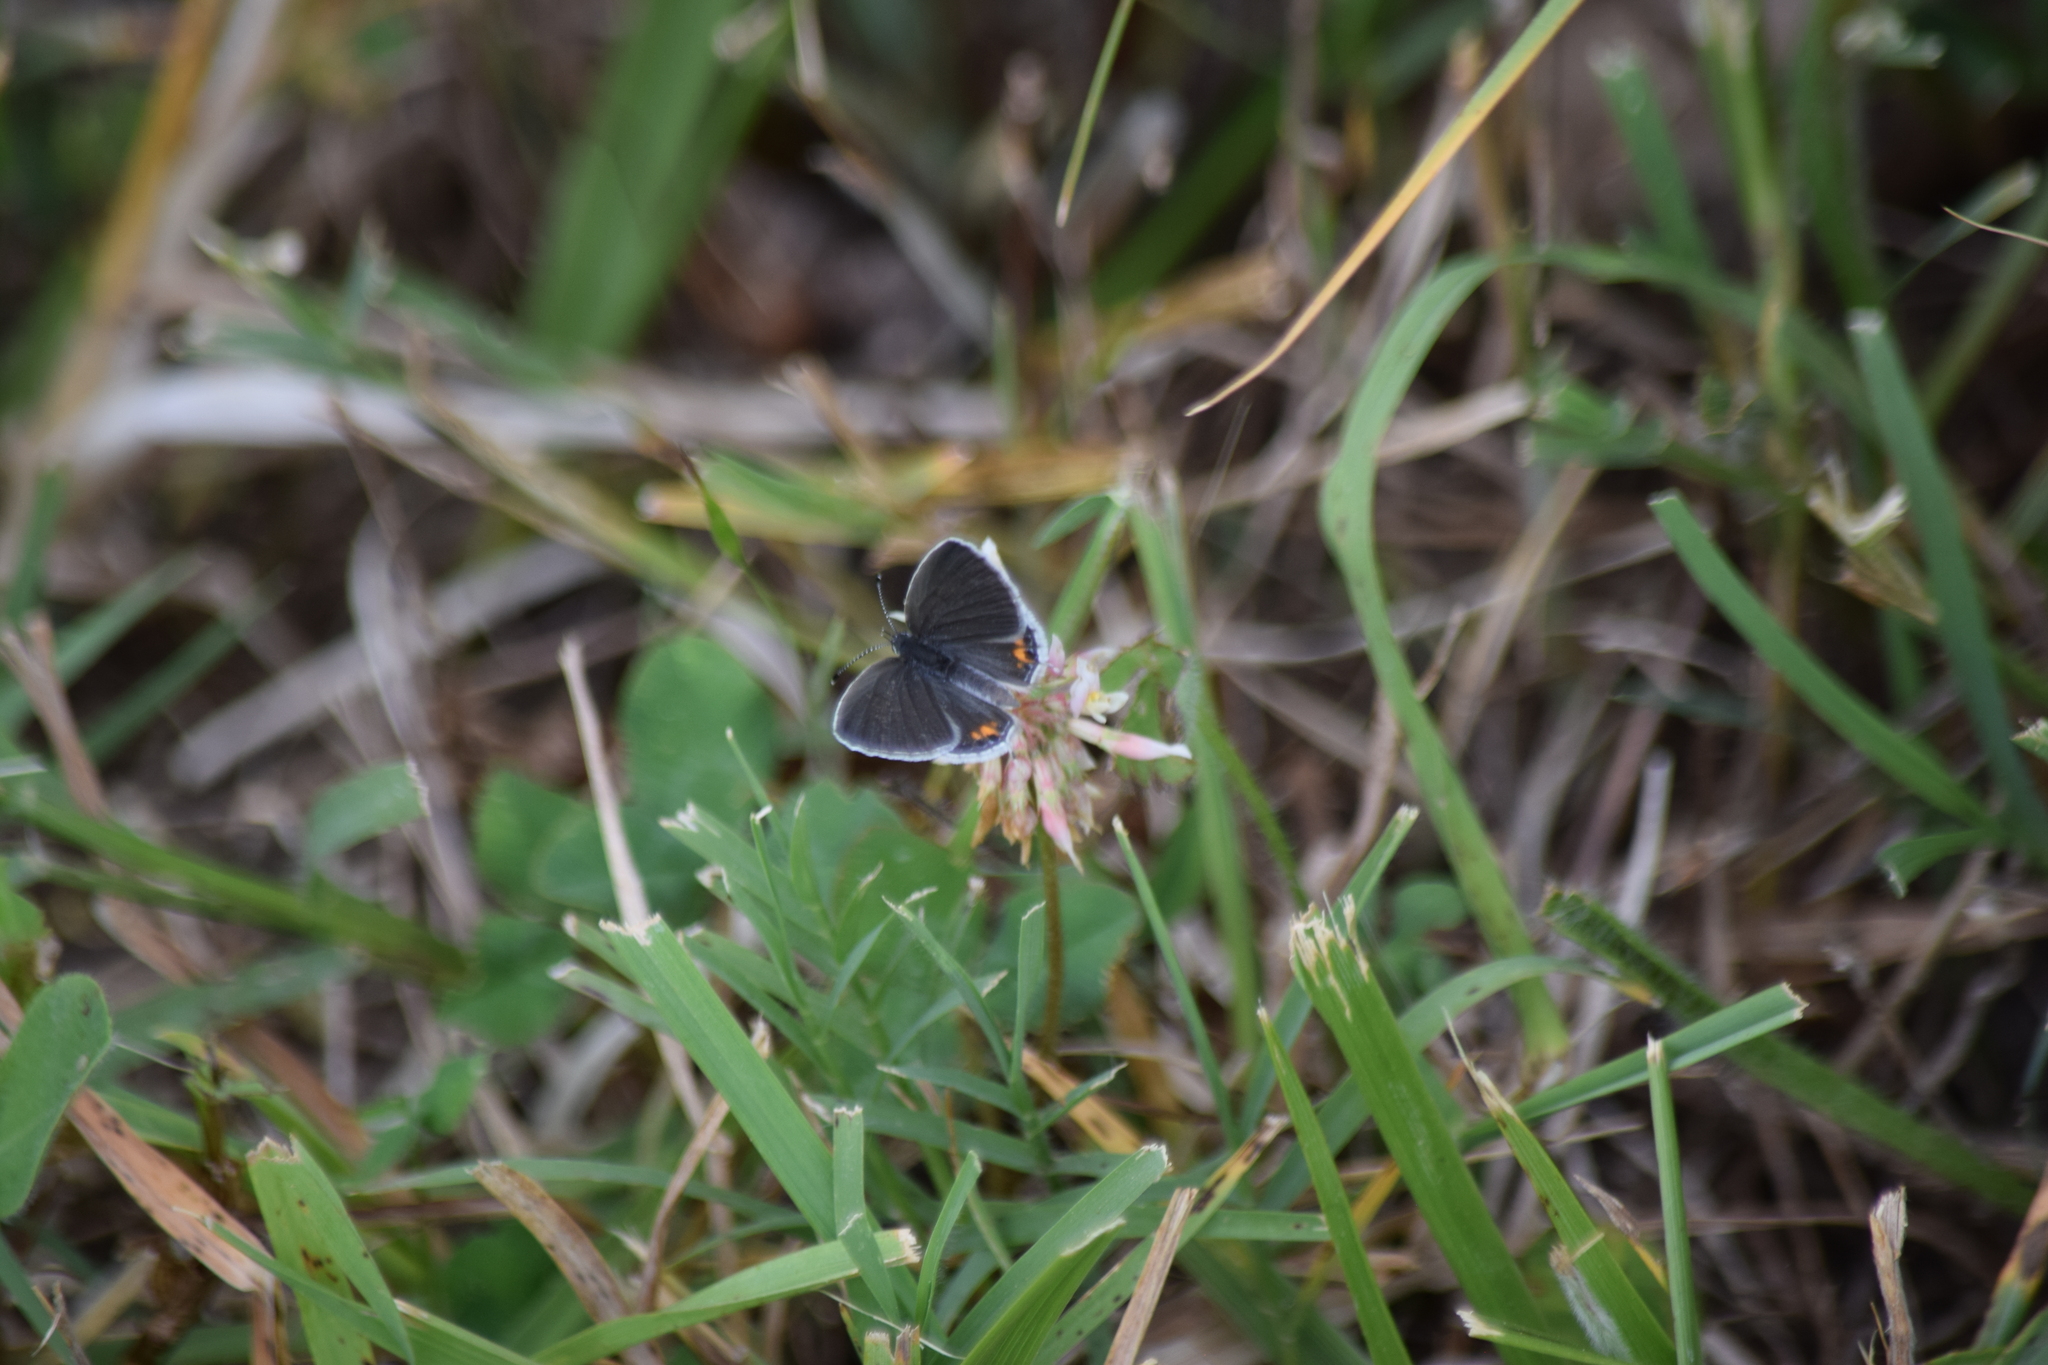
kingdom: Animalia
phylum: Arthropoda
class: Insecta
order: Lepidoptera
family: Lycaenidae
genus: Elkalyce
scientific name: Elkalyce comyntas
